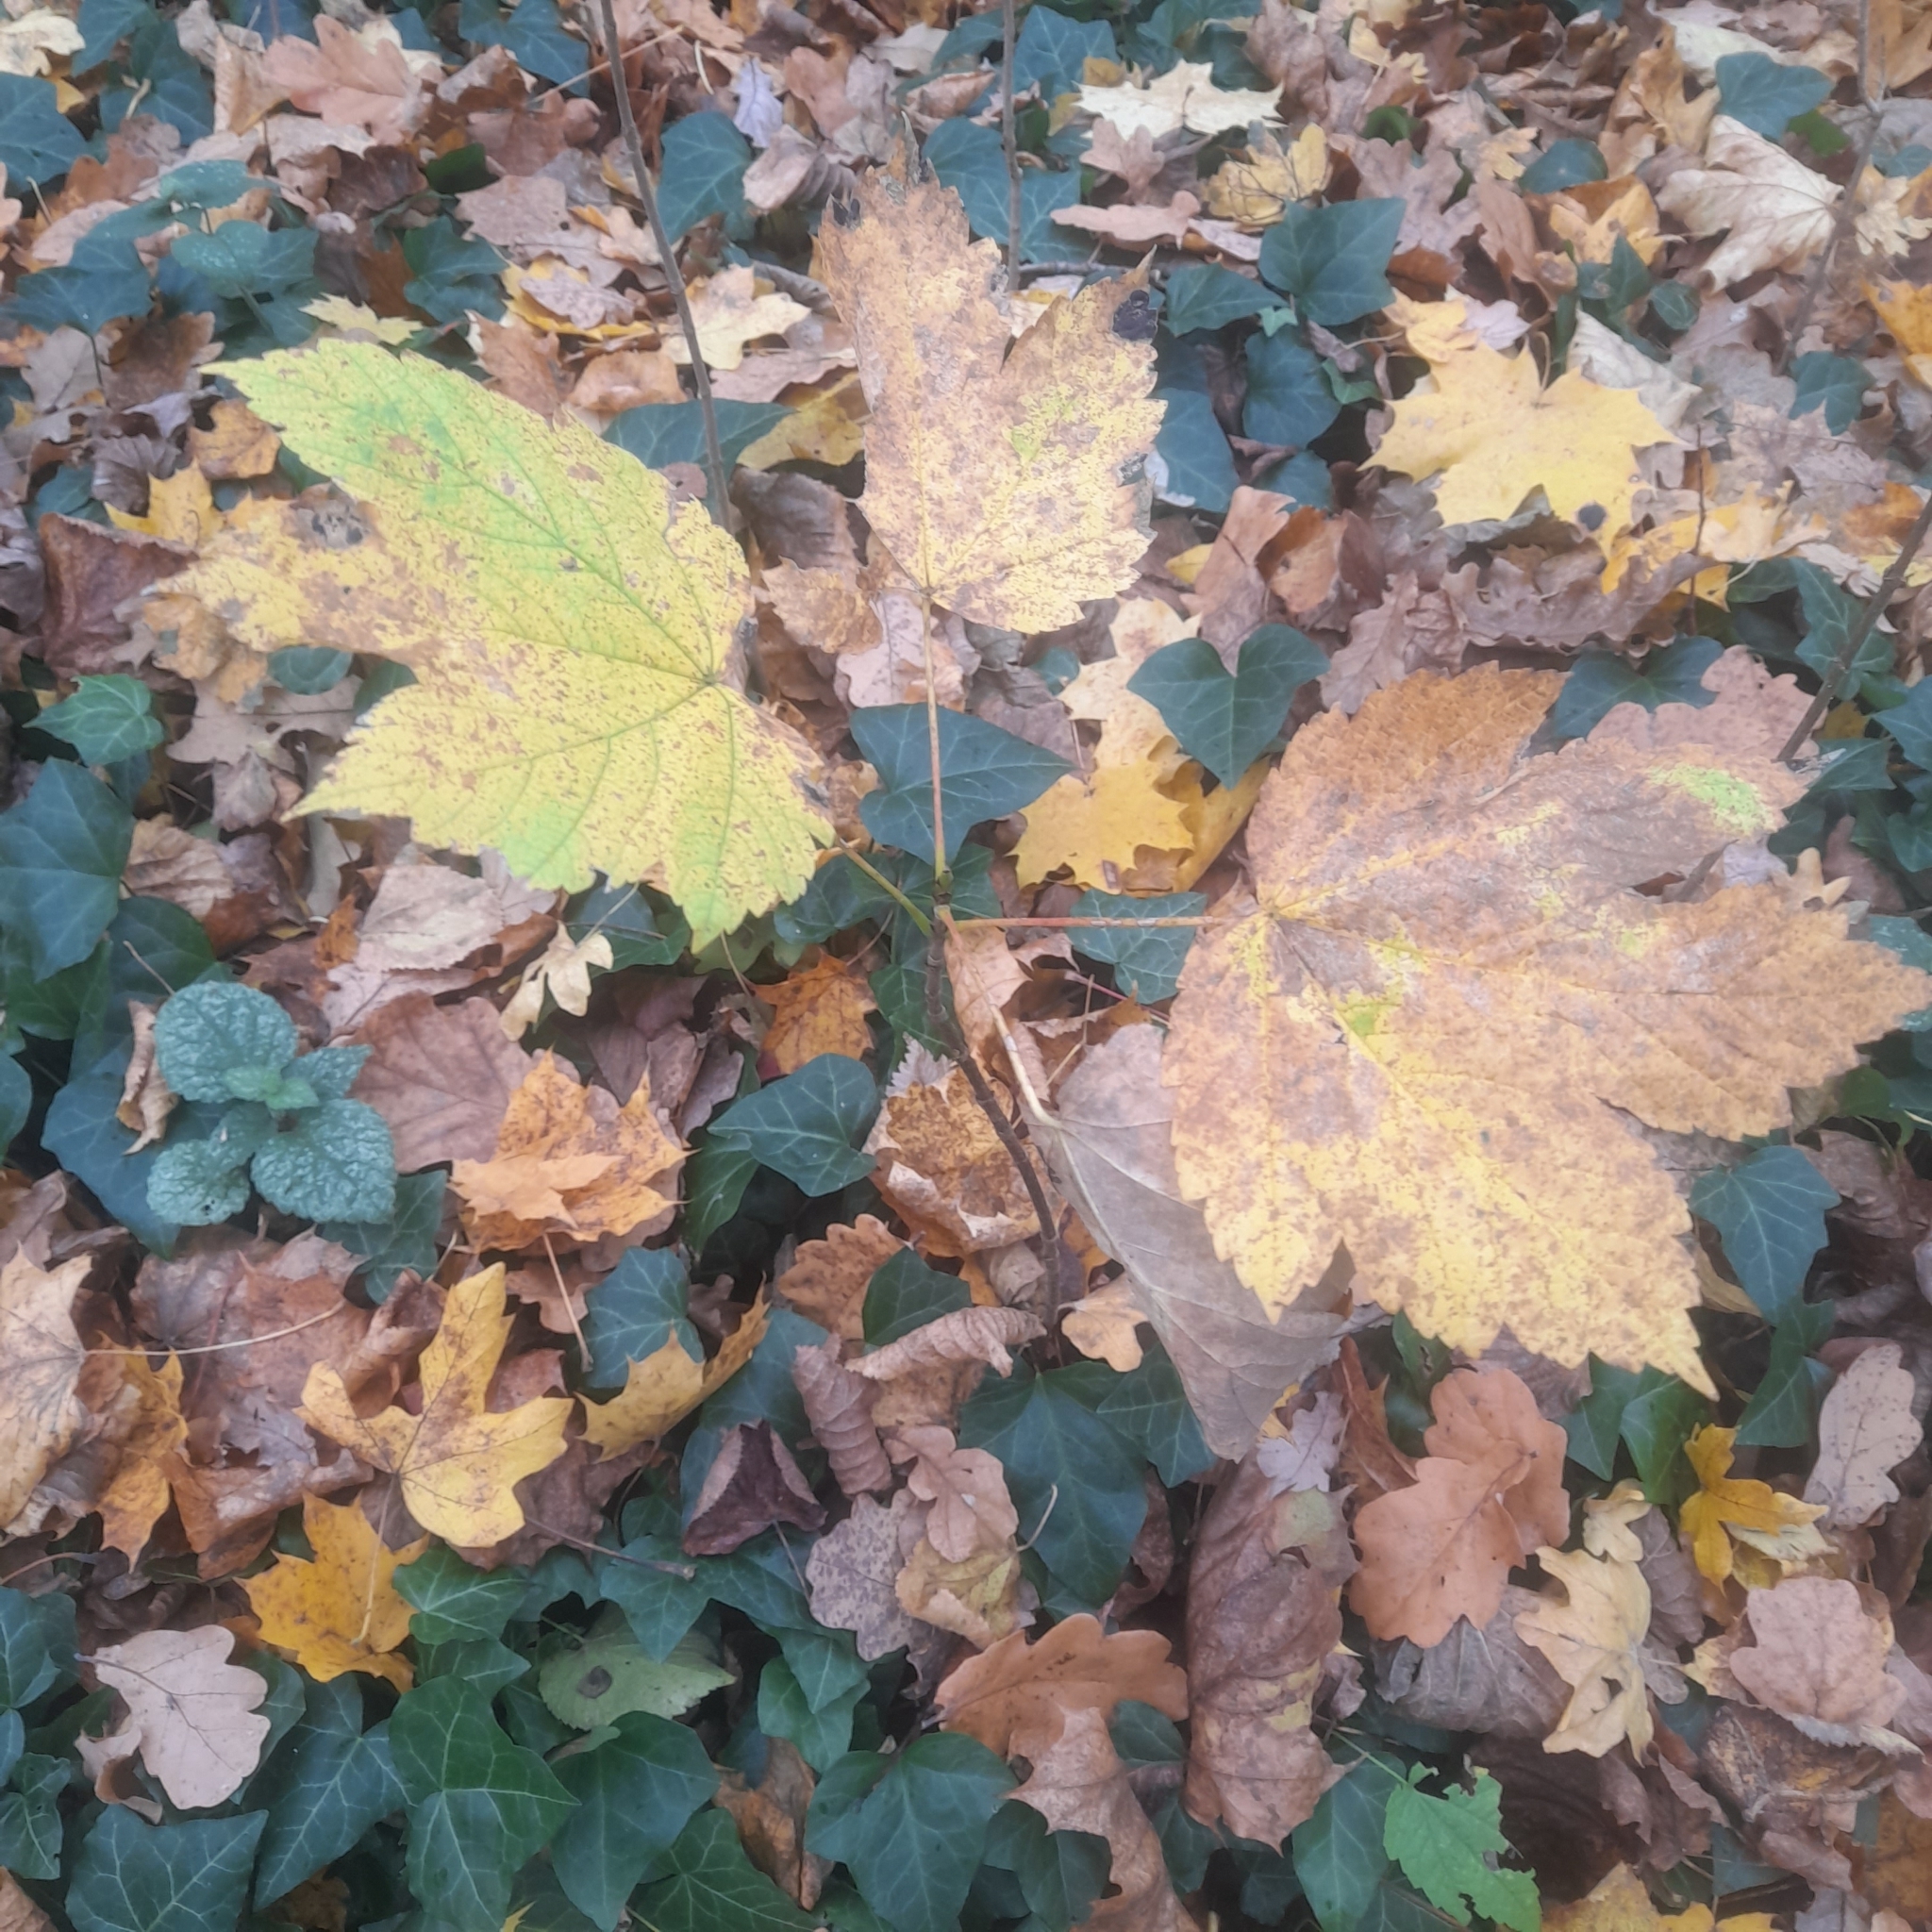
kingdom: Plantae
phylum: Tracheophyta
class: Magnoliopsida
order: Sapindales
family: Sapindaceae
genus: Acer
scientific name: Acer pseudoplatanus
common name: Sycamore
